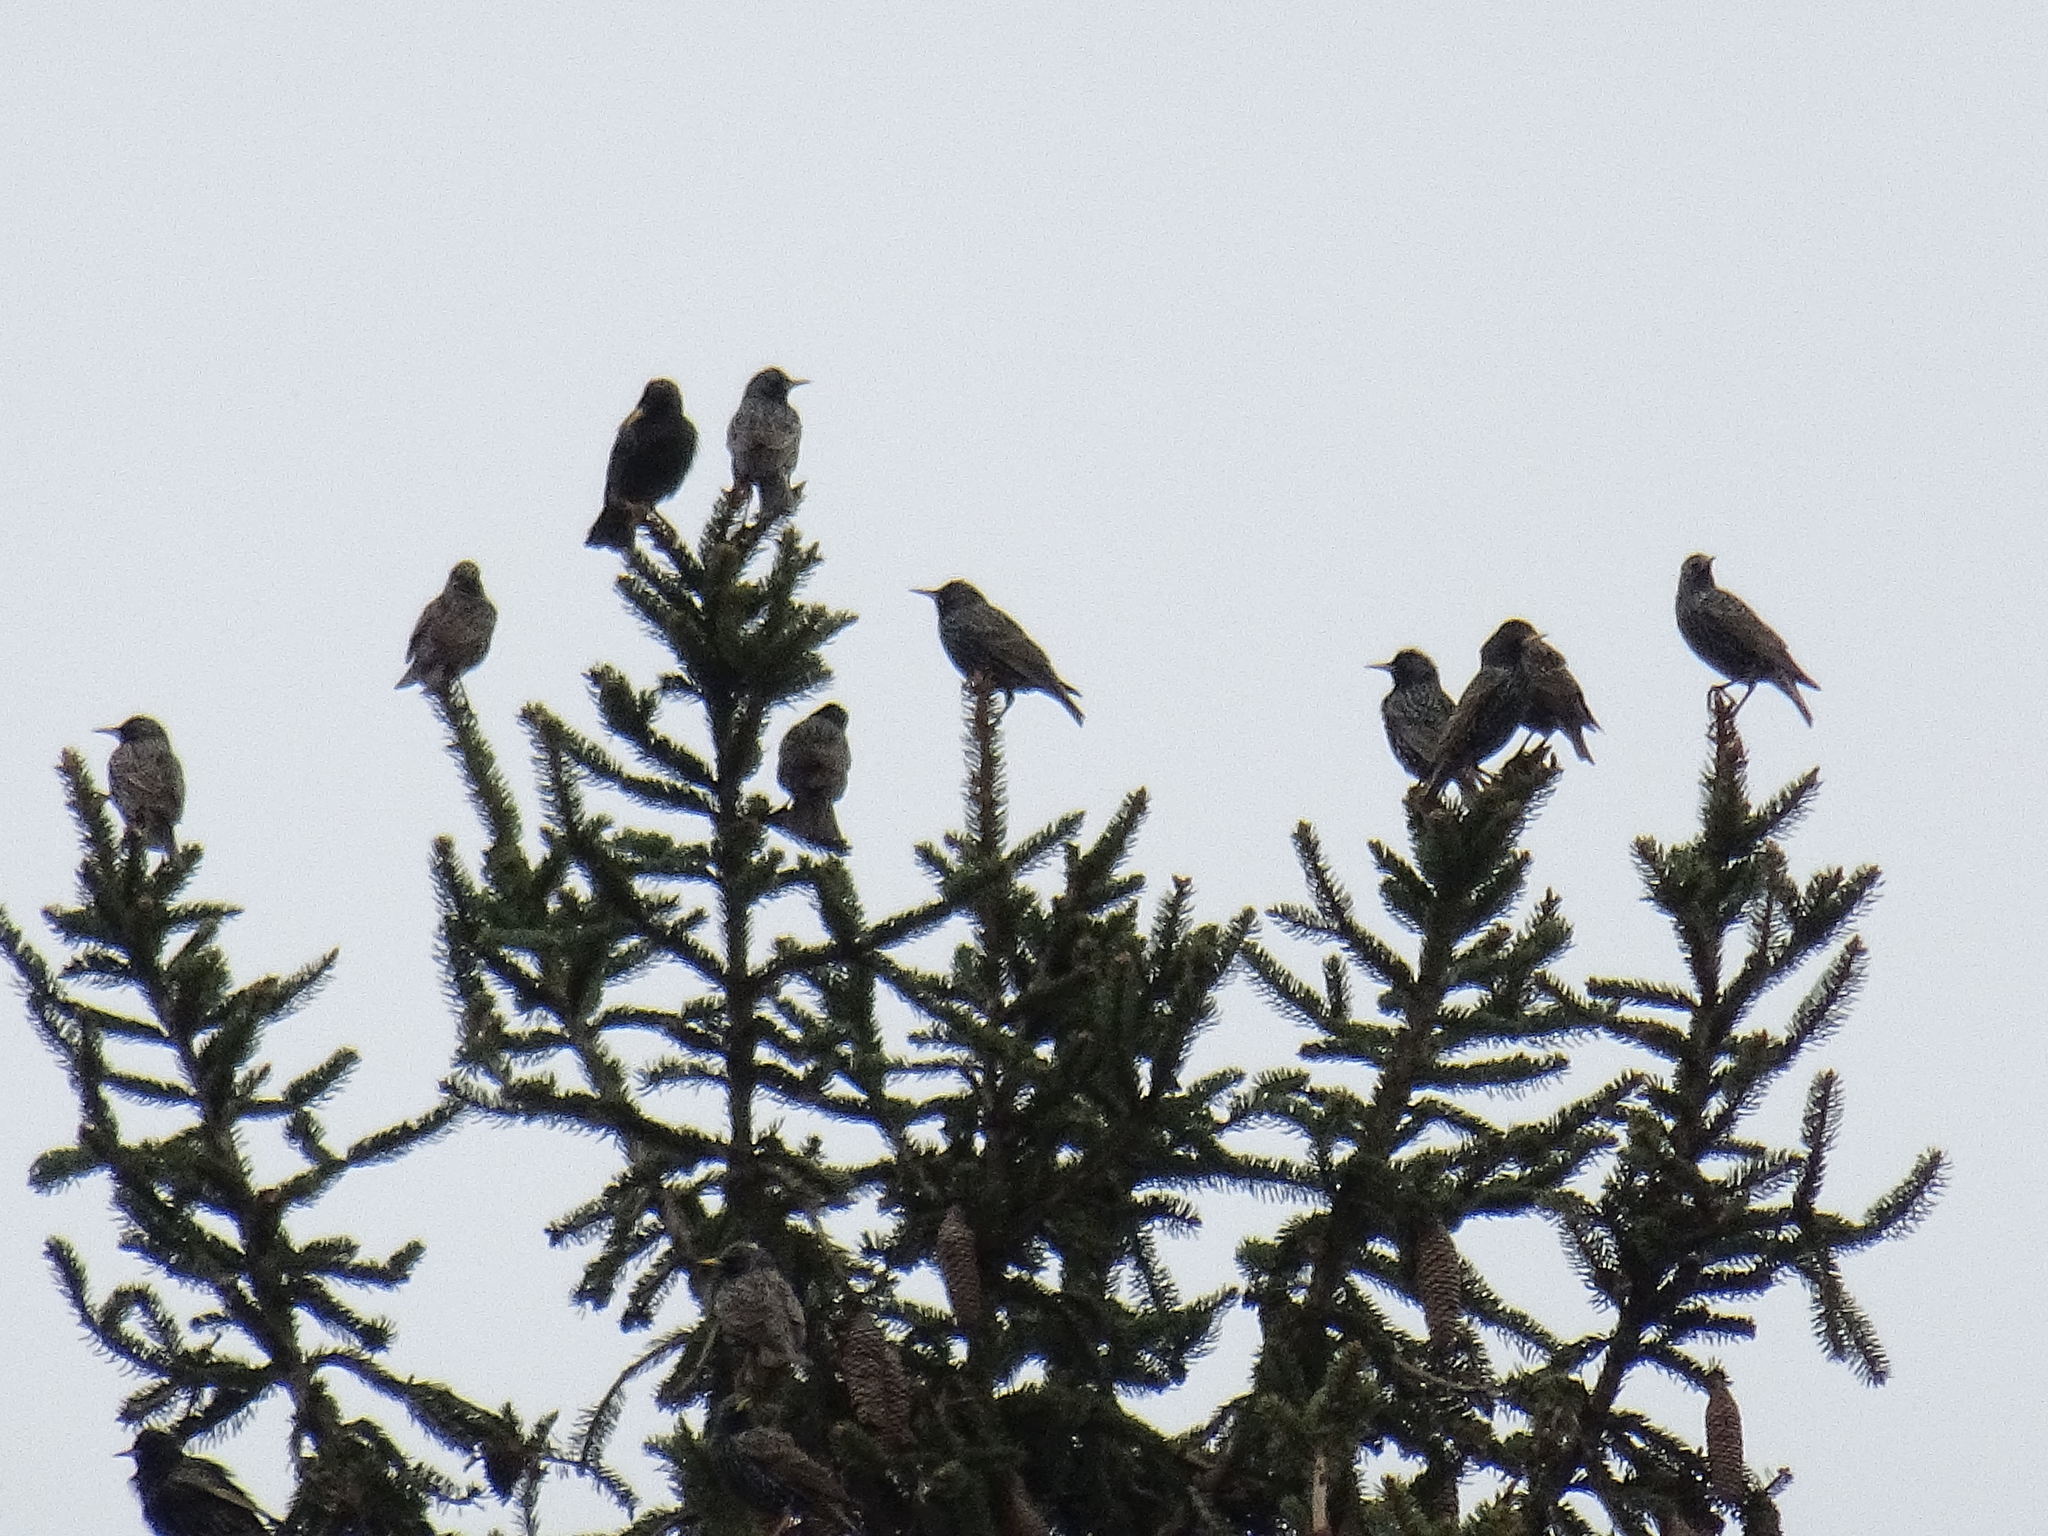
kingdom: Animalia
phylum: Chordata
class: Aves
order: Passeriformes
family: Sturnidae
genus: Sturnus
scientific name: Sturnus vulgaris
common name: Common starling
